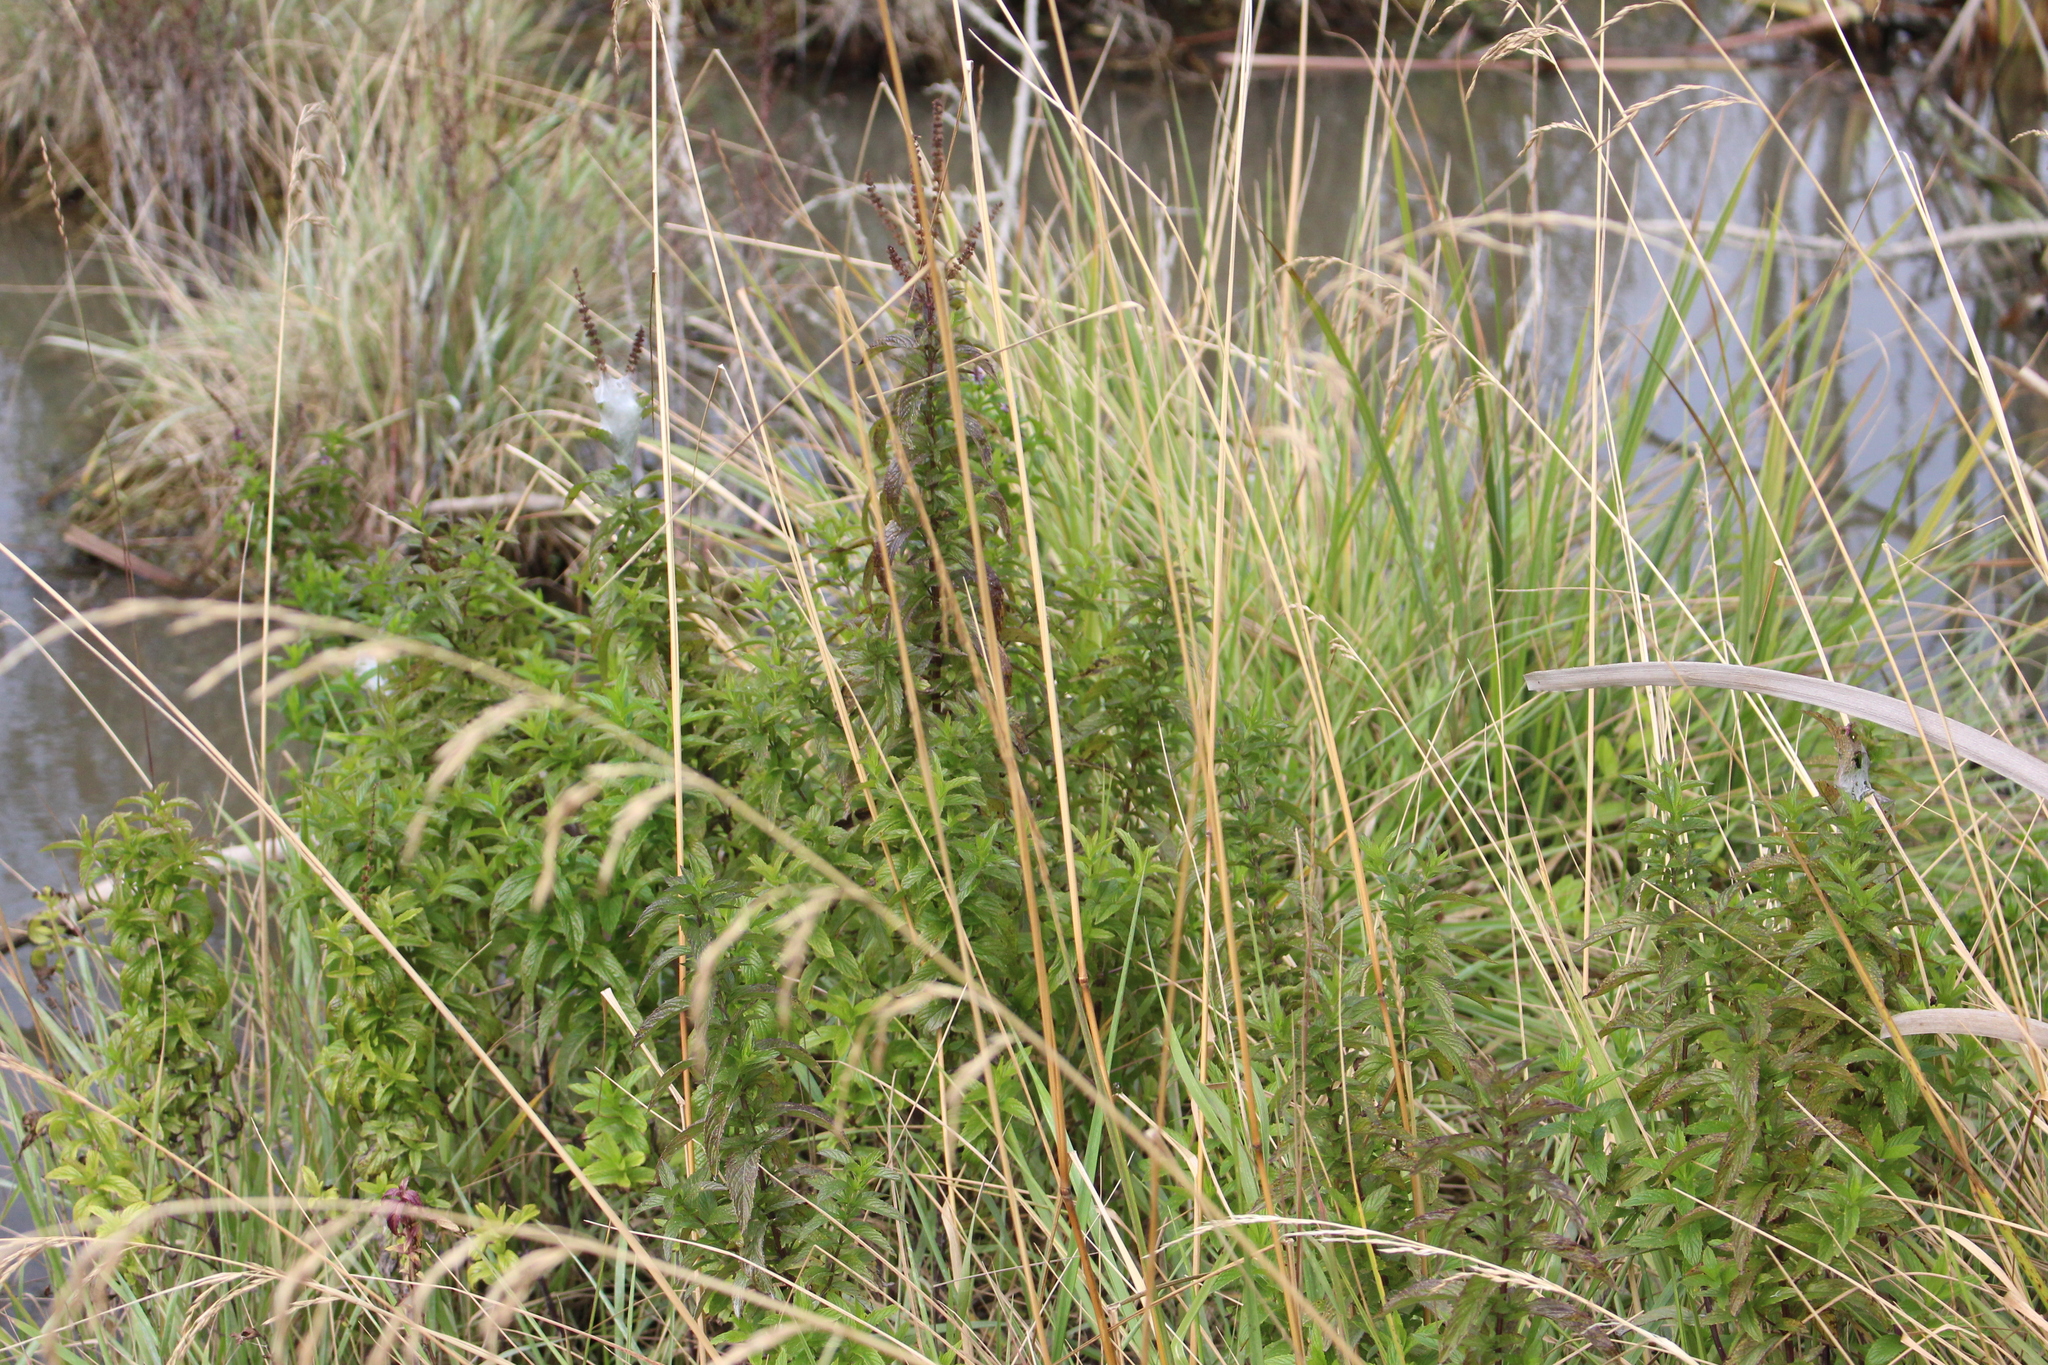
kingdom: Plantae
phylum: Tracheophyta
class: Magnoliopsida
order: Lamiales
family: Lamiaceae
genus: Mentha
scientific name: Mentha piperita
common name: Peppermint
